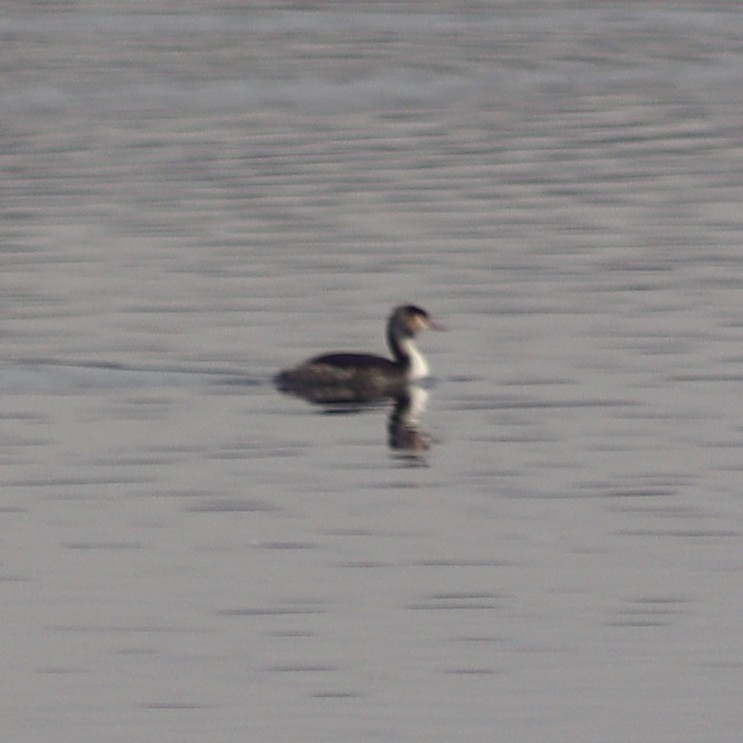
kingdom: Animalia
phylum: Chordata
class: Aves
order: Podicipediformes
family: Podicipedidae
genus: Podiceps
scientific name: Podiceps cristatus
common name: Great crested grebe
